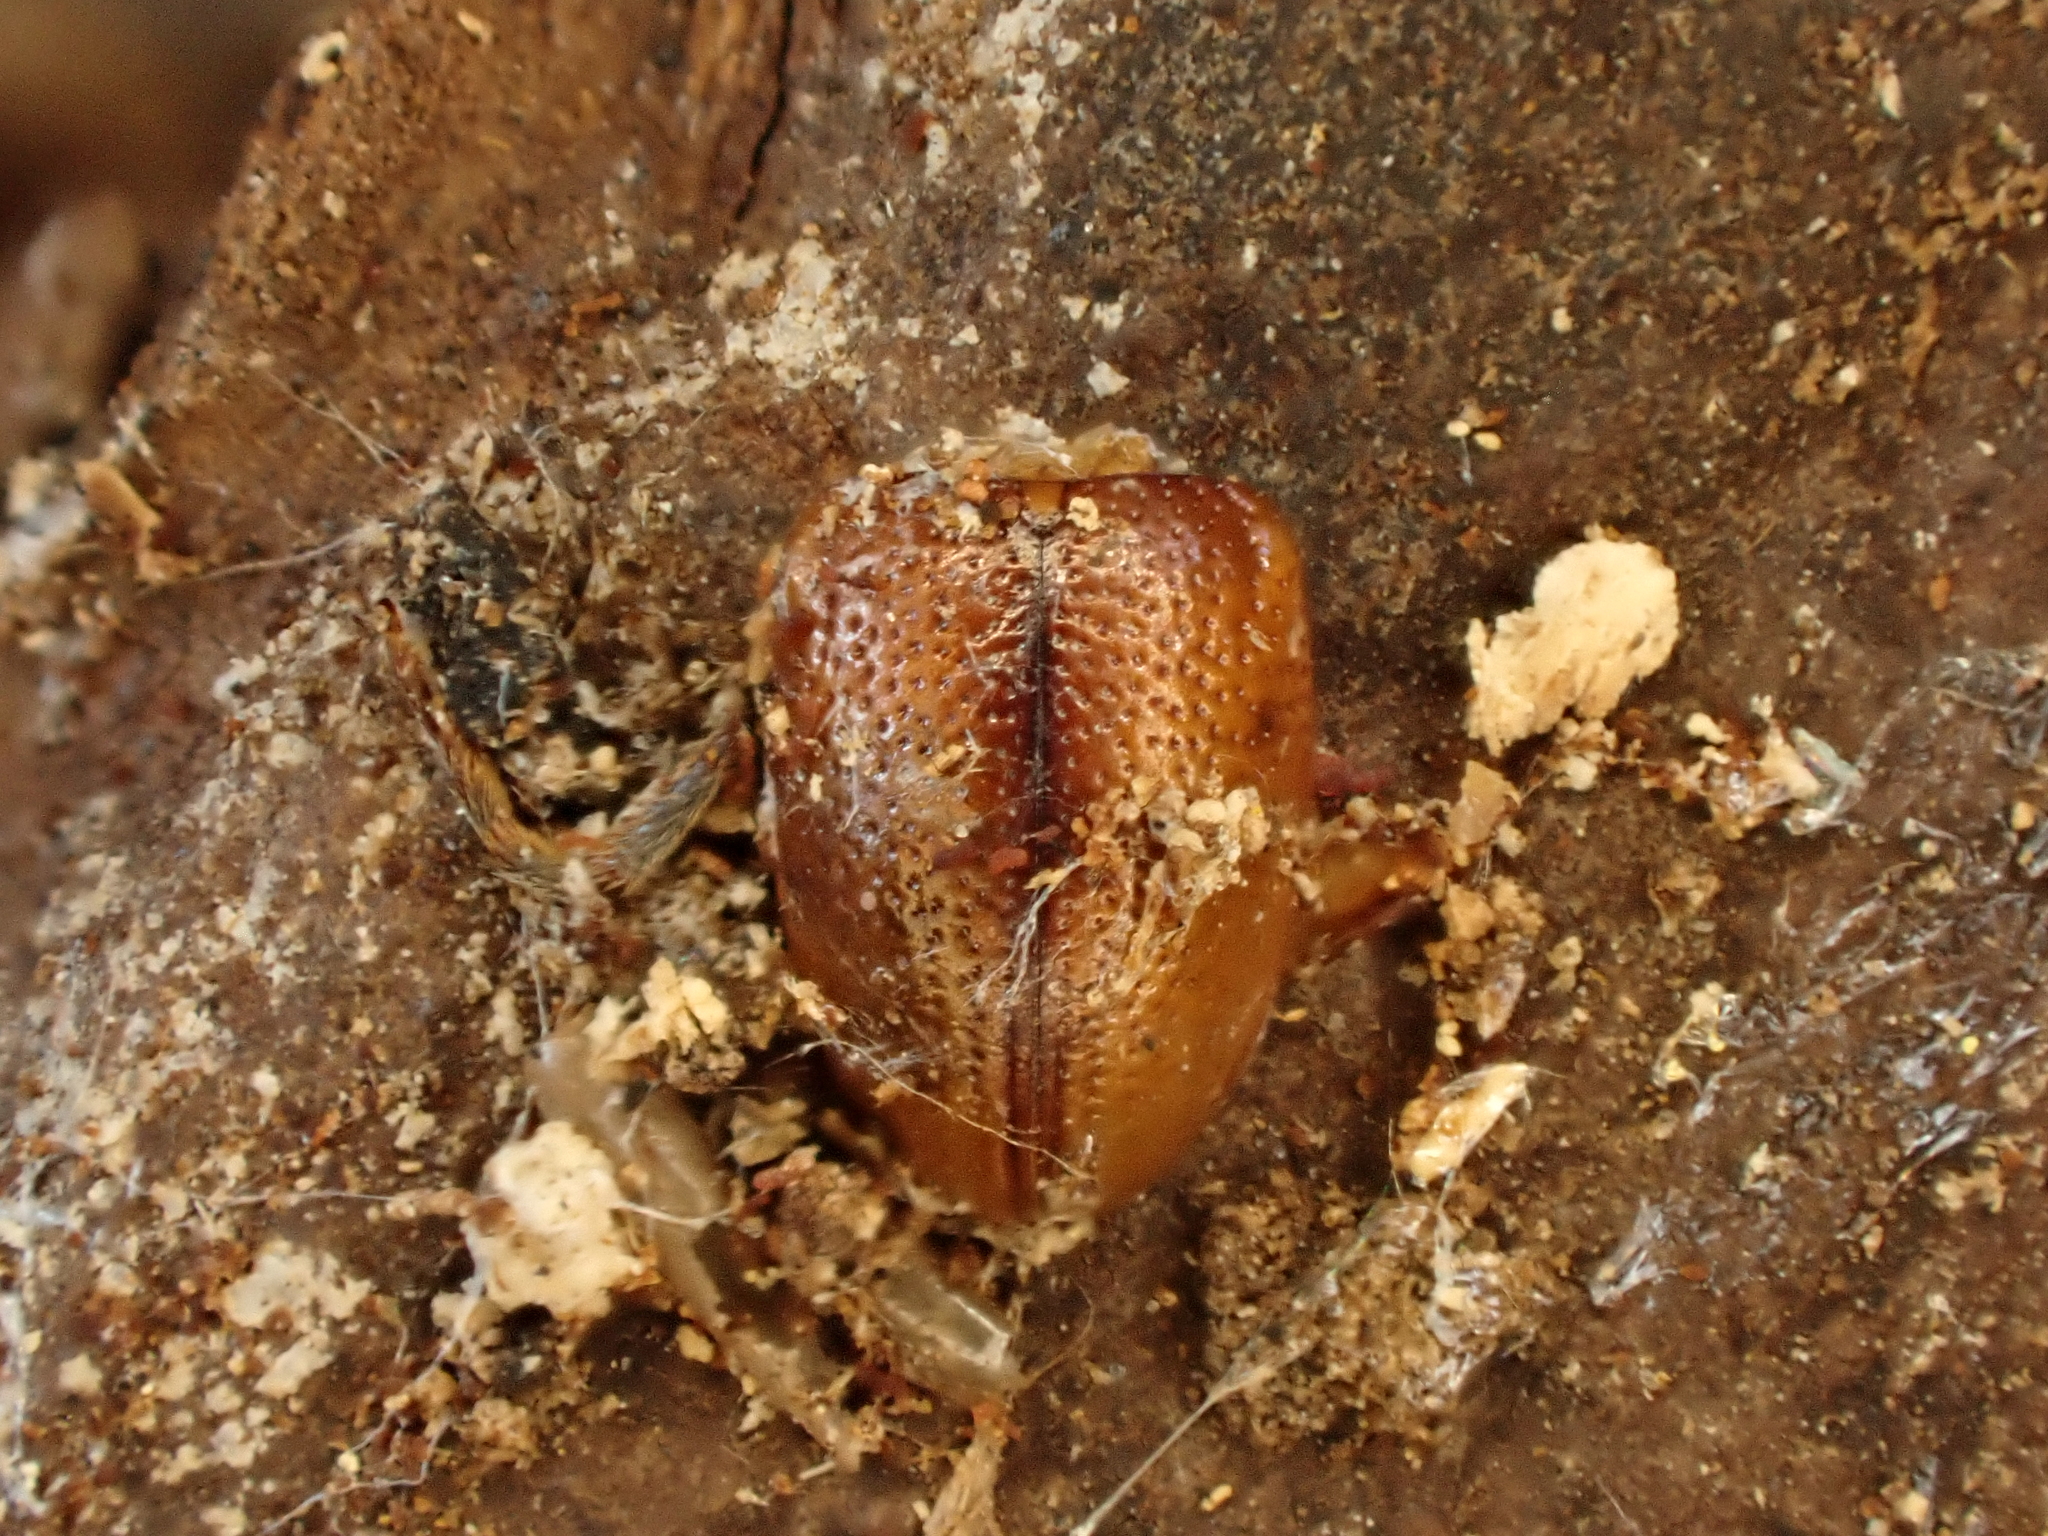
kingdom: Animalia
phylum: Arthropoda
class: Insecta
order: Coleoptera
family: Chrysomelidae
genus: Eucolaspis
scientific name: Eucolaspis
